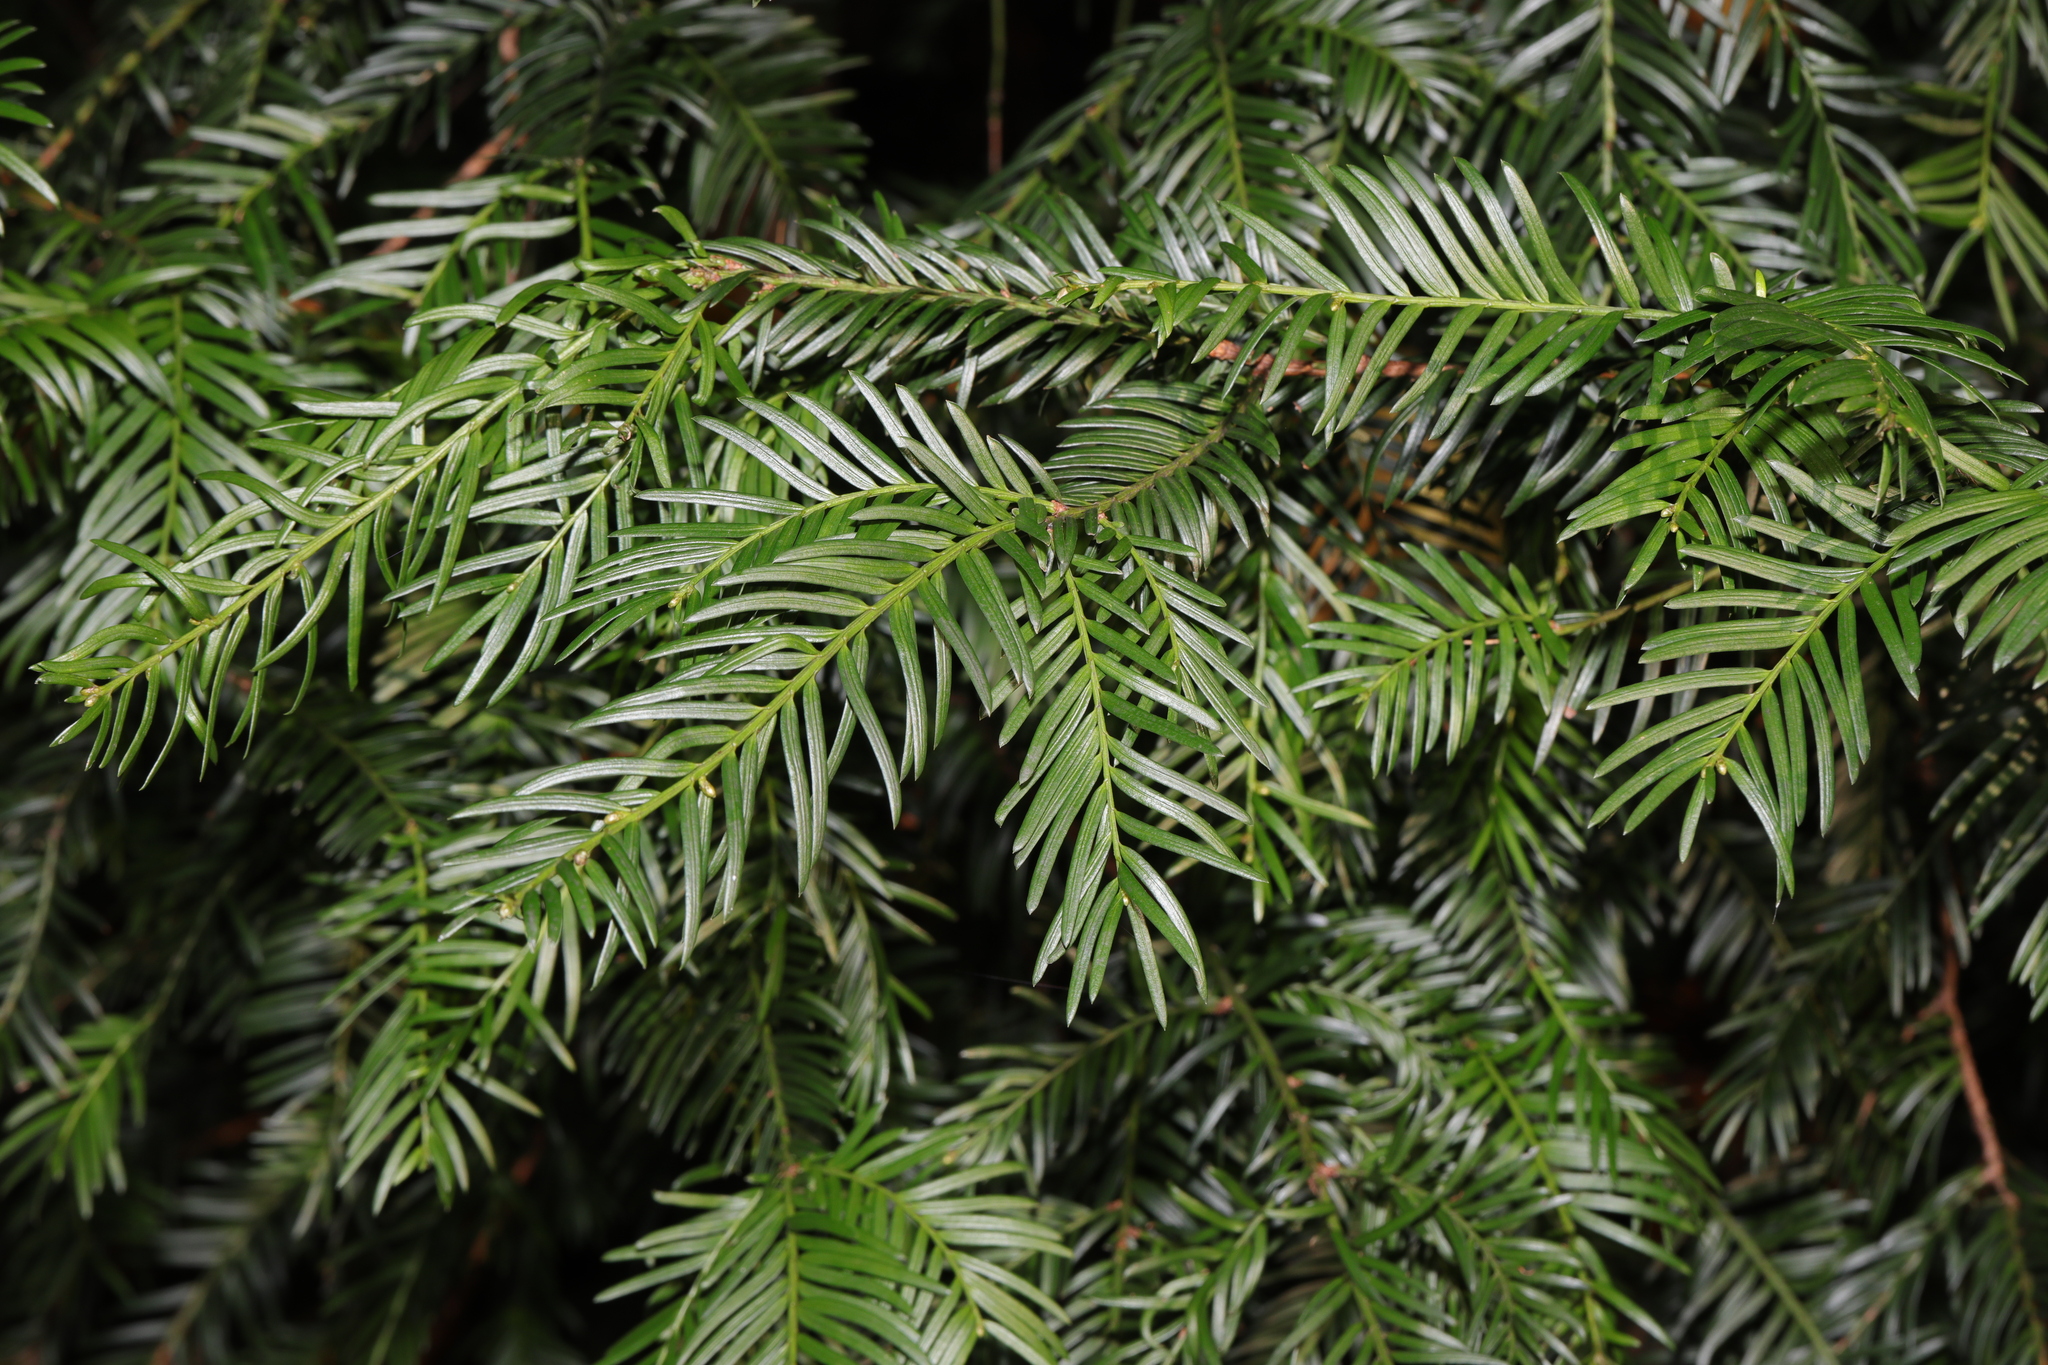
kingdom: Plantae
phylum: Tracheophyta
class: Pinopsida
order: Pinales
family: Taxaceae
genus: Taxus
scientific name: Taxus baccata
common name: Yew
